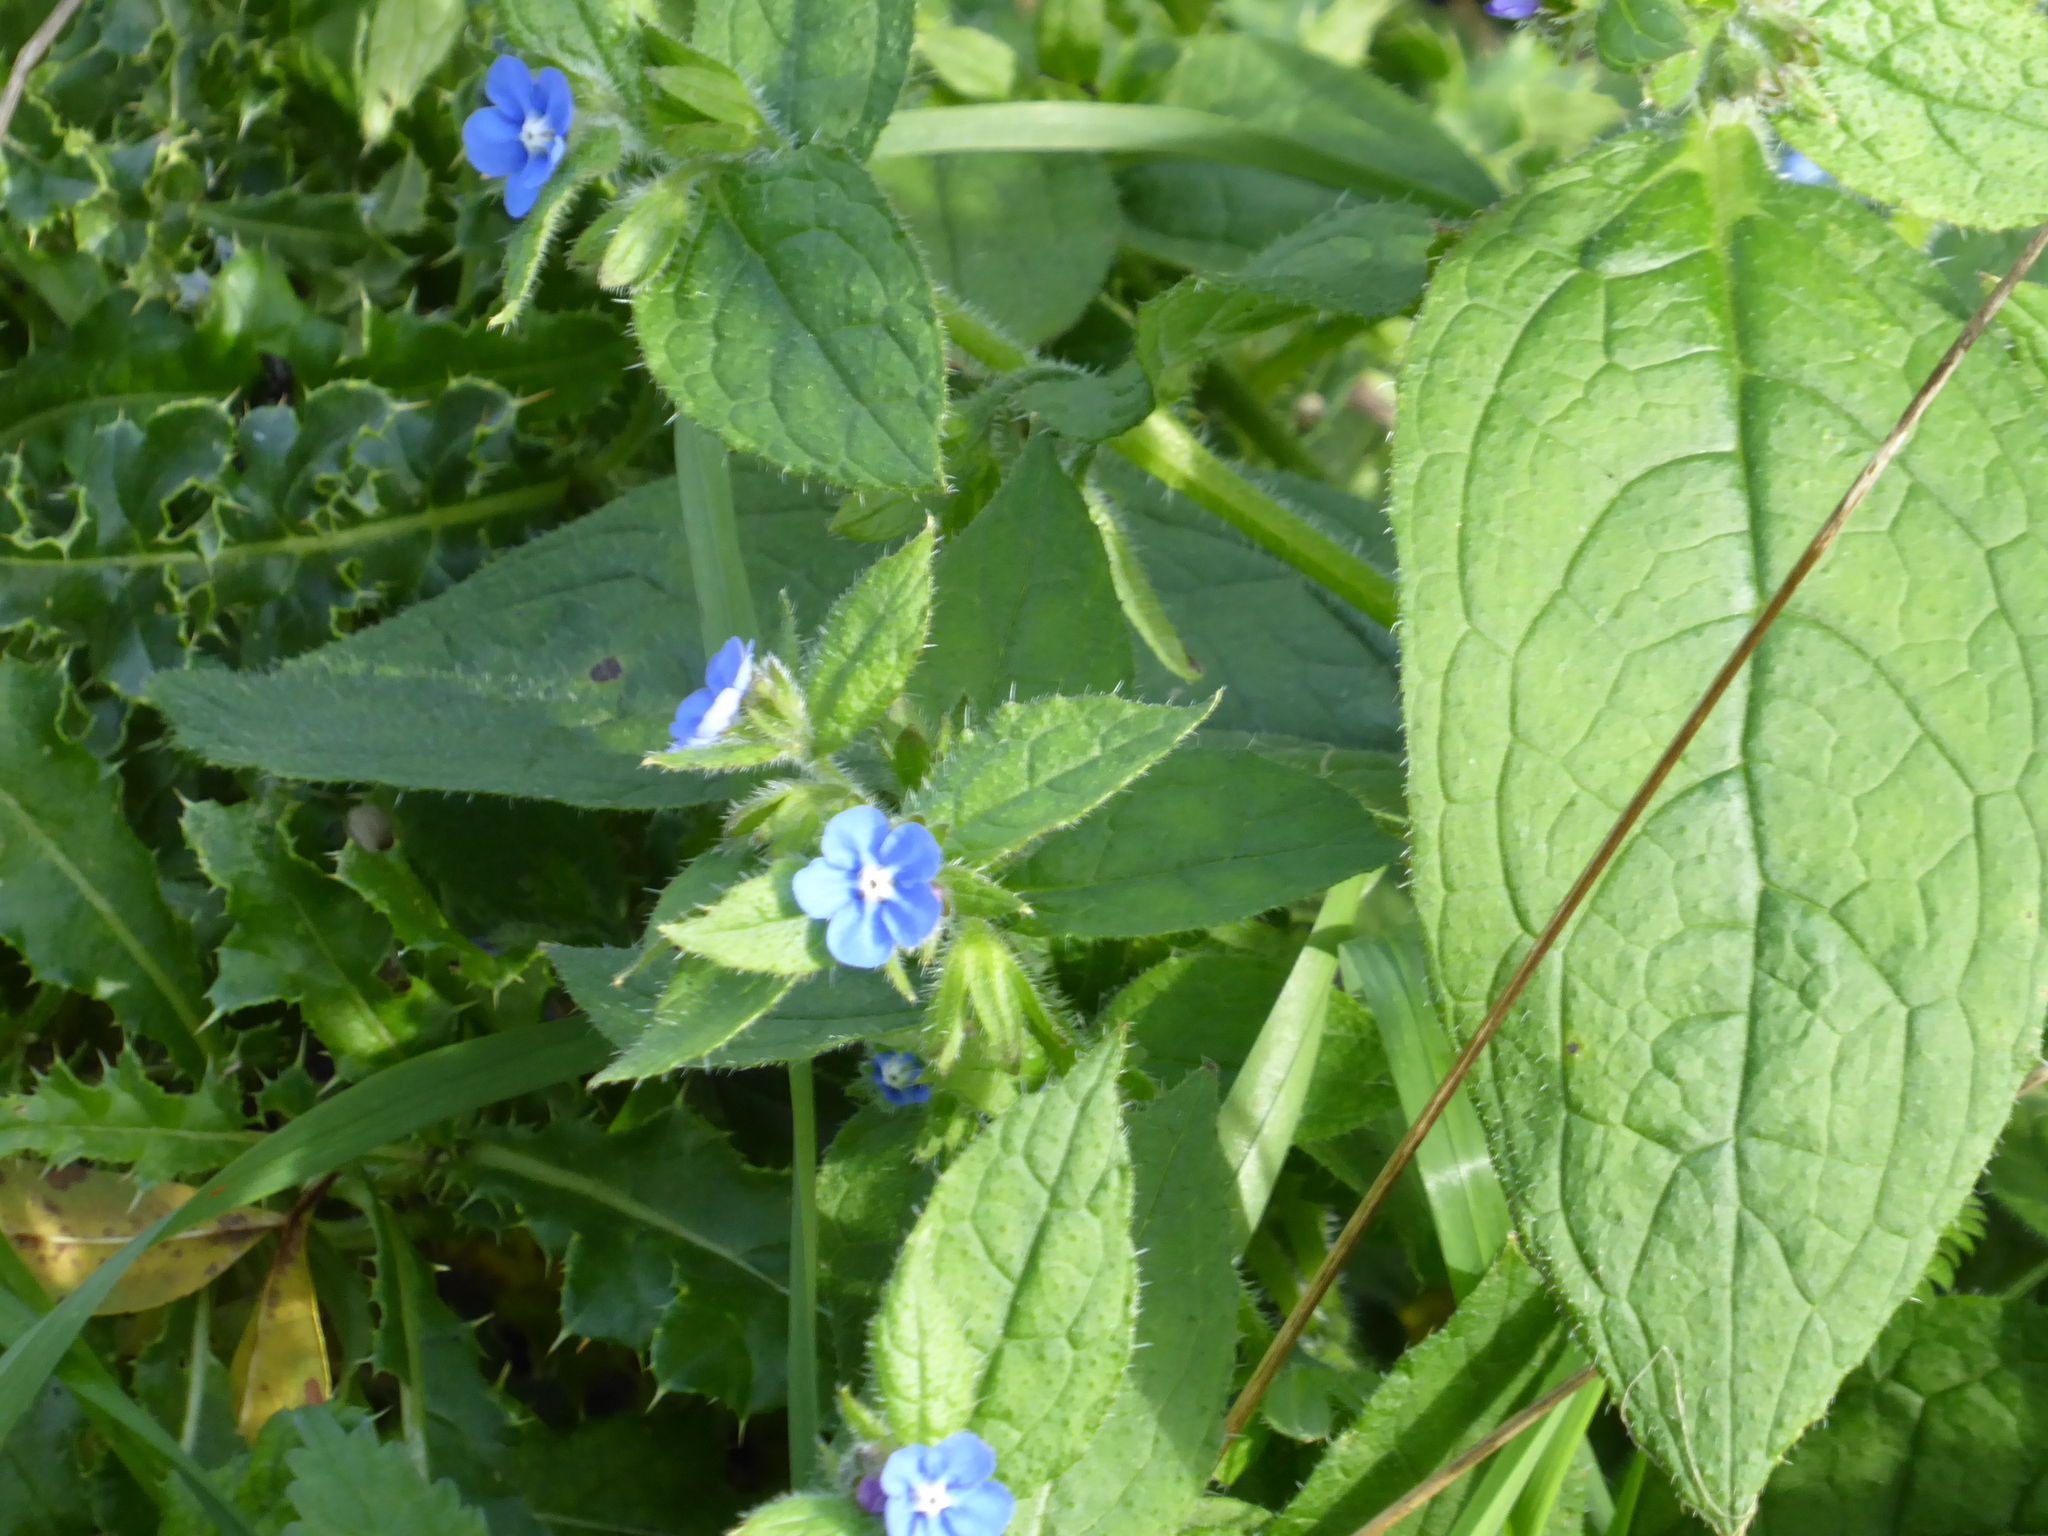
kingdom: Plantae
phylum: Tracheophyta
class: Magnoliopsida
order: Boraginales
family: Boraginaceae
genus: Pentaglottis
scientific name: Pentaglottis sempervirens
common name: Green alkanet
